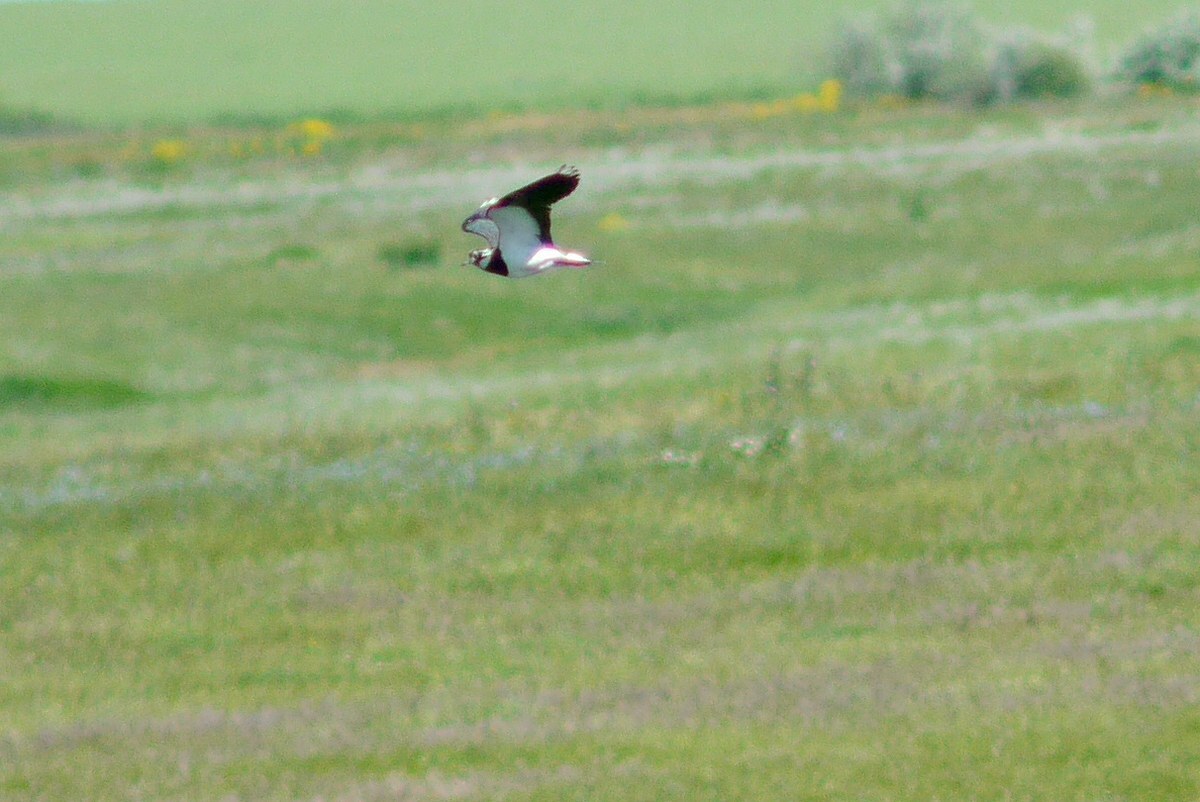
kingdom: Animalia
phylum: Chordata
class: Aves
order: Charadriiformes
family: Charadriidae
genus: Vanellus
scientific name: Vanellus vanellus
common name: Northern lapwing
